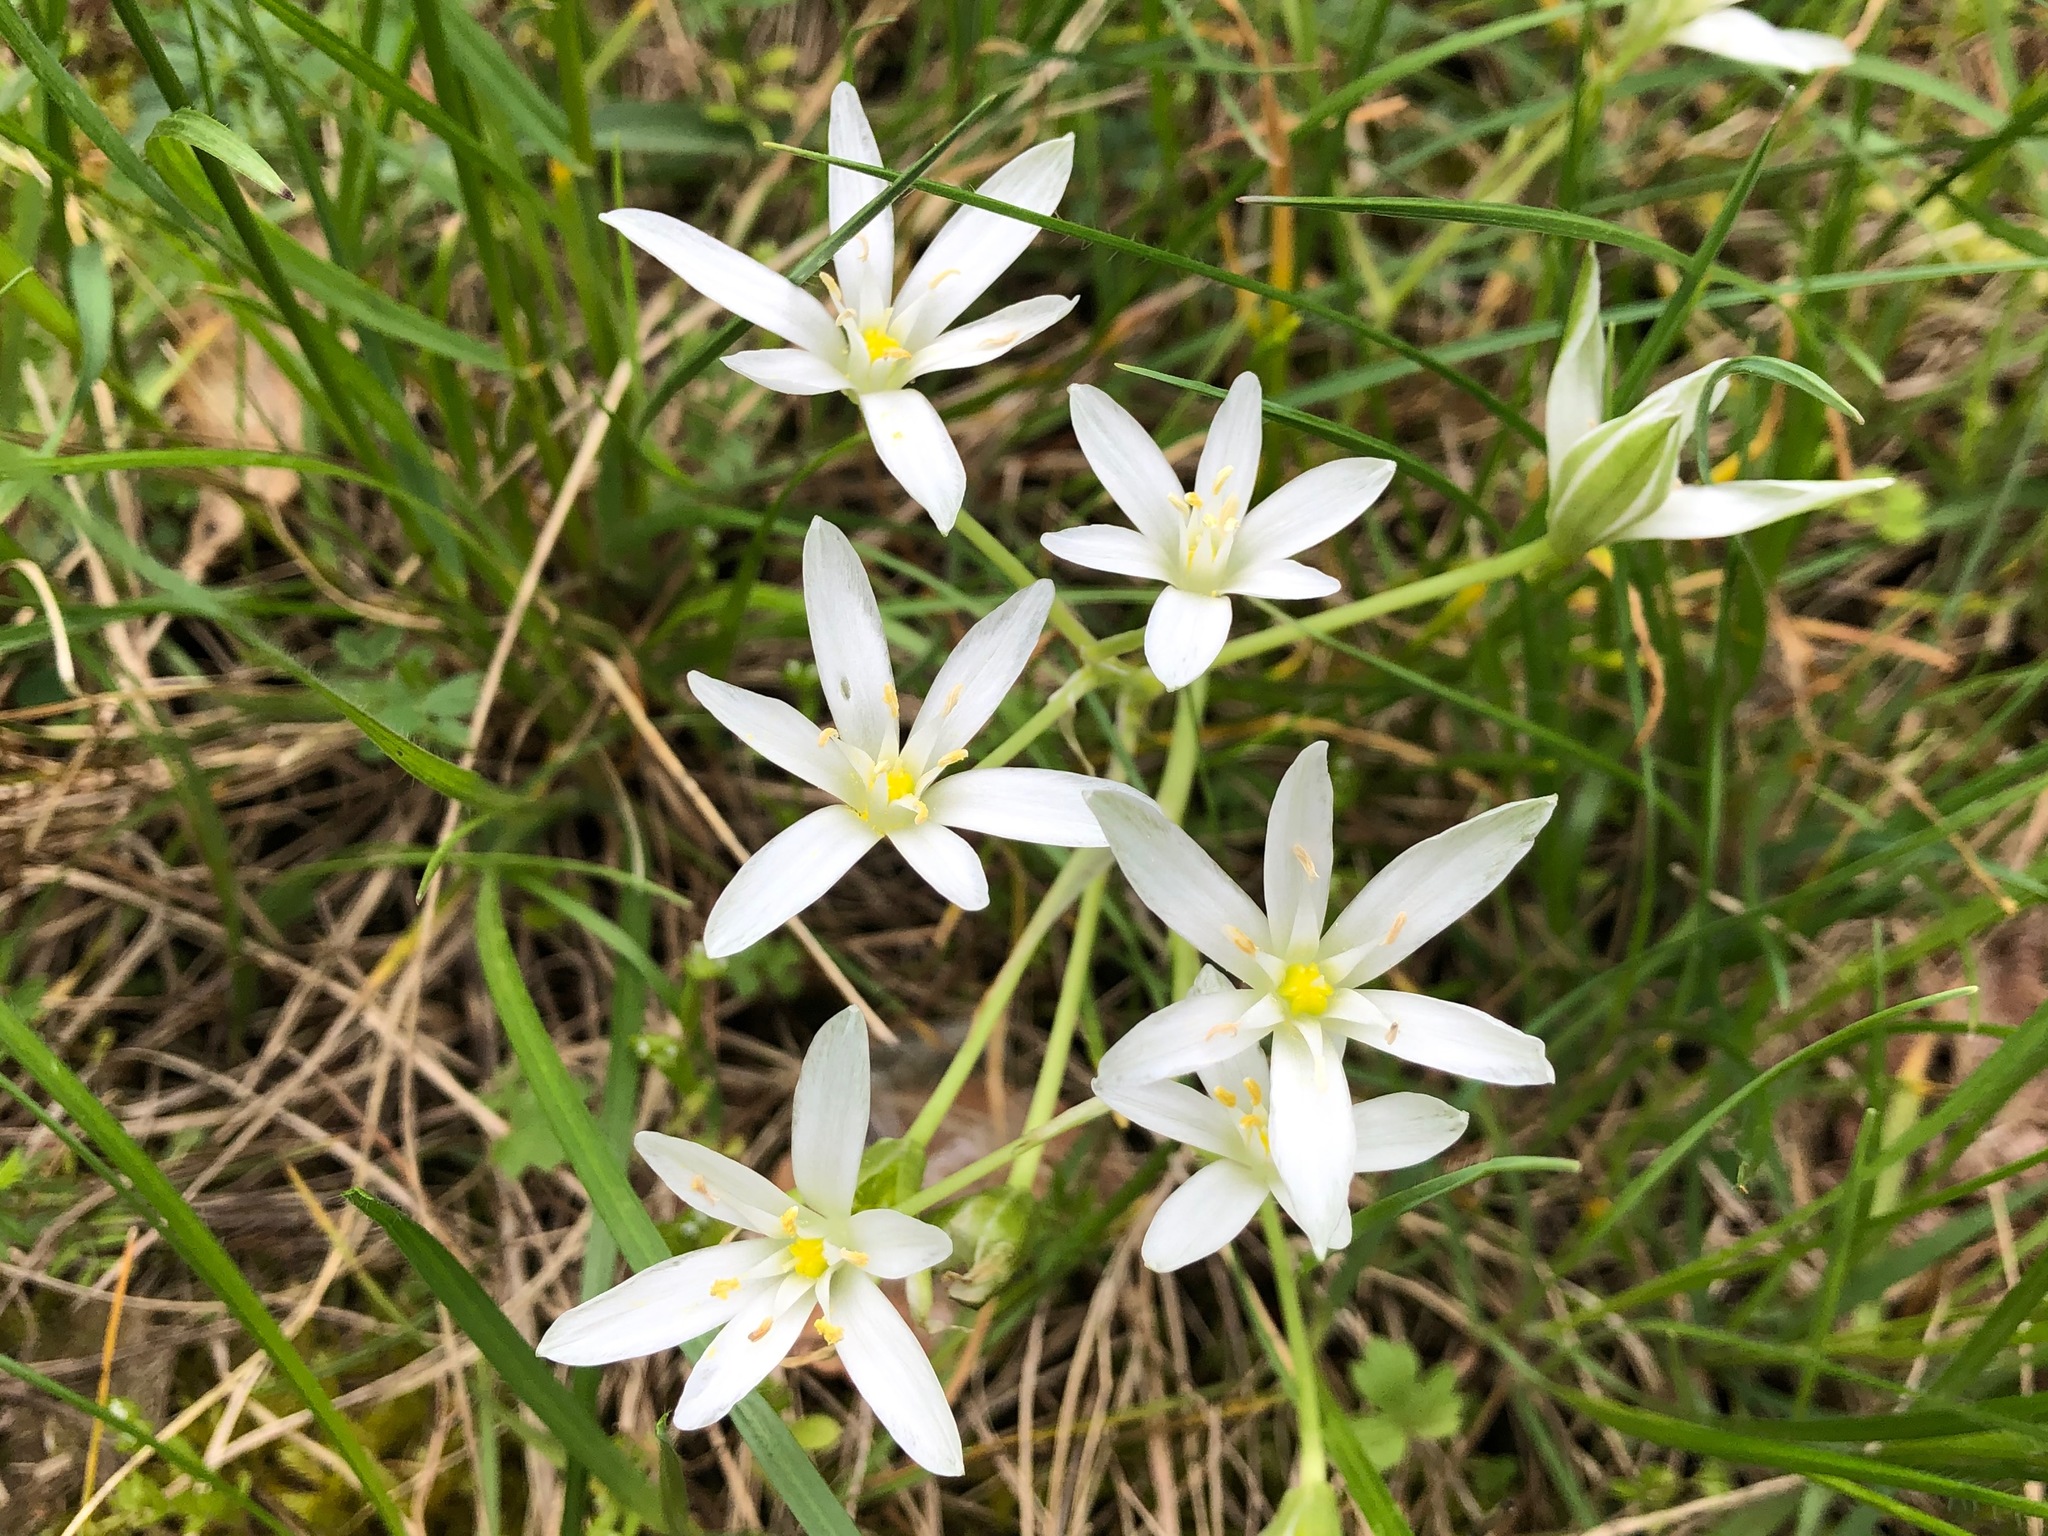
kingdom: Plantae
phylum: Tracheophyta
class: Liliopsida
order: Asparagales
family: Asparagaceae
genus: Ornithogalum
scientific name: Ornithogalum umbellatum
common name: Garden star-of-bethlehem
